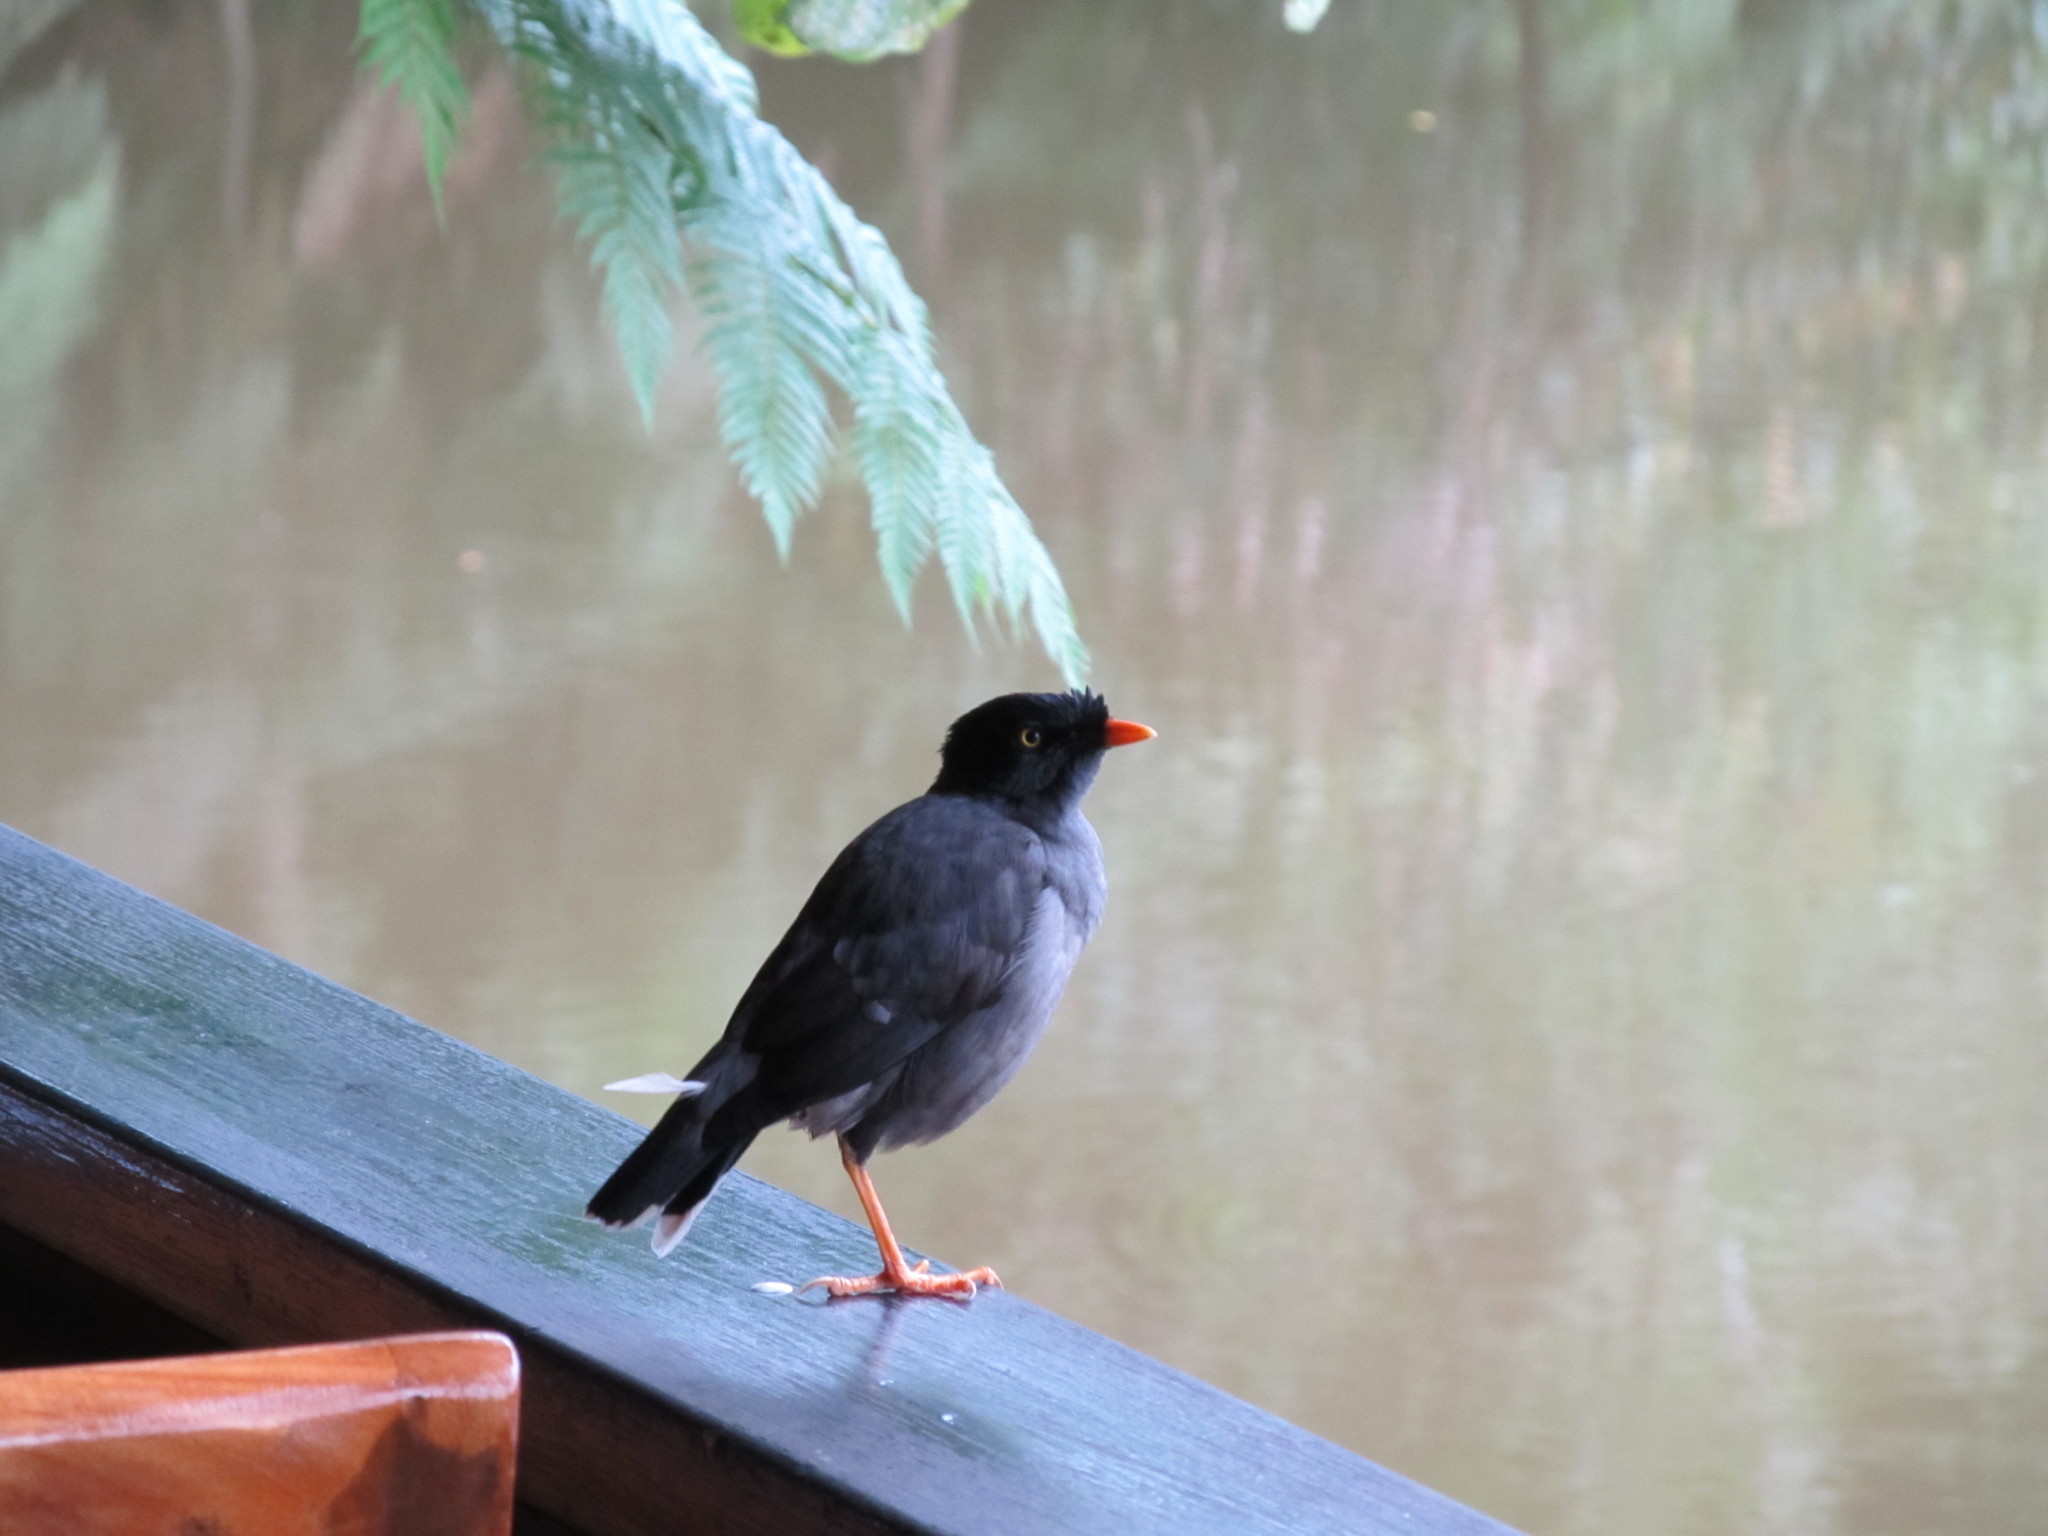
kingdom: Animalia
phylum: Chordata
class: Aves
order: Passeriformes
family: Sturnidae
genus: Acridotheres
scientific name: Acridotheres fuscus
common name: Jungle myna
